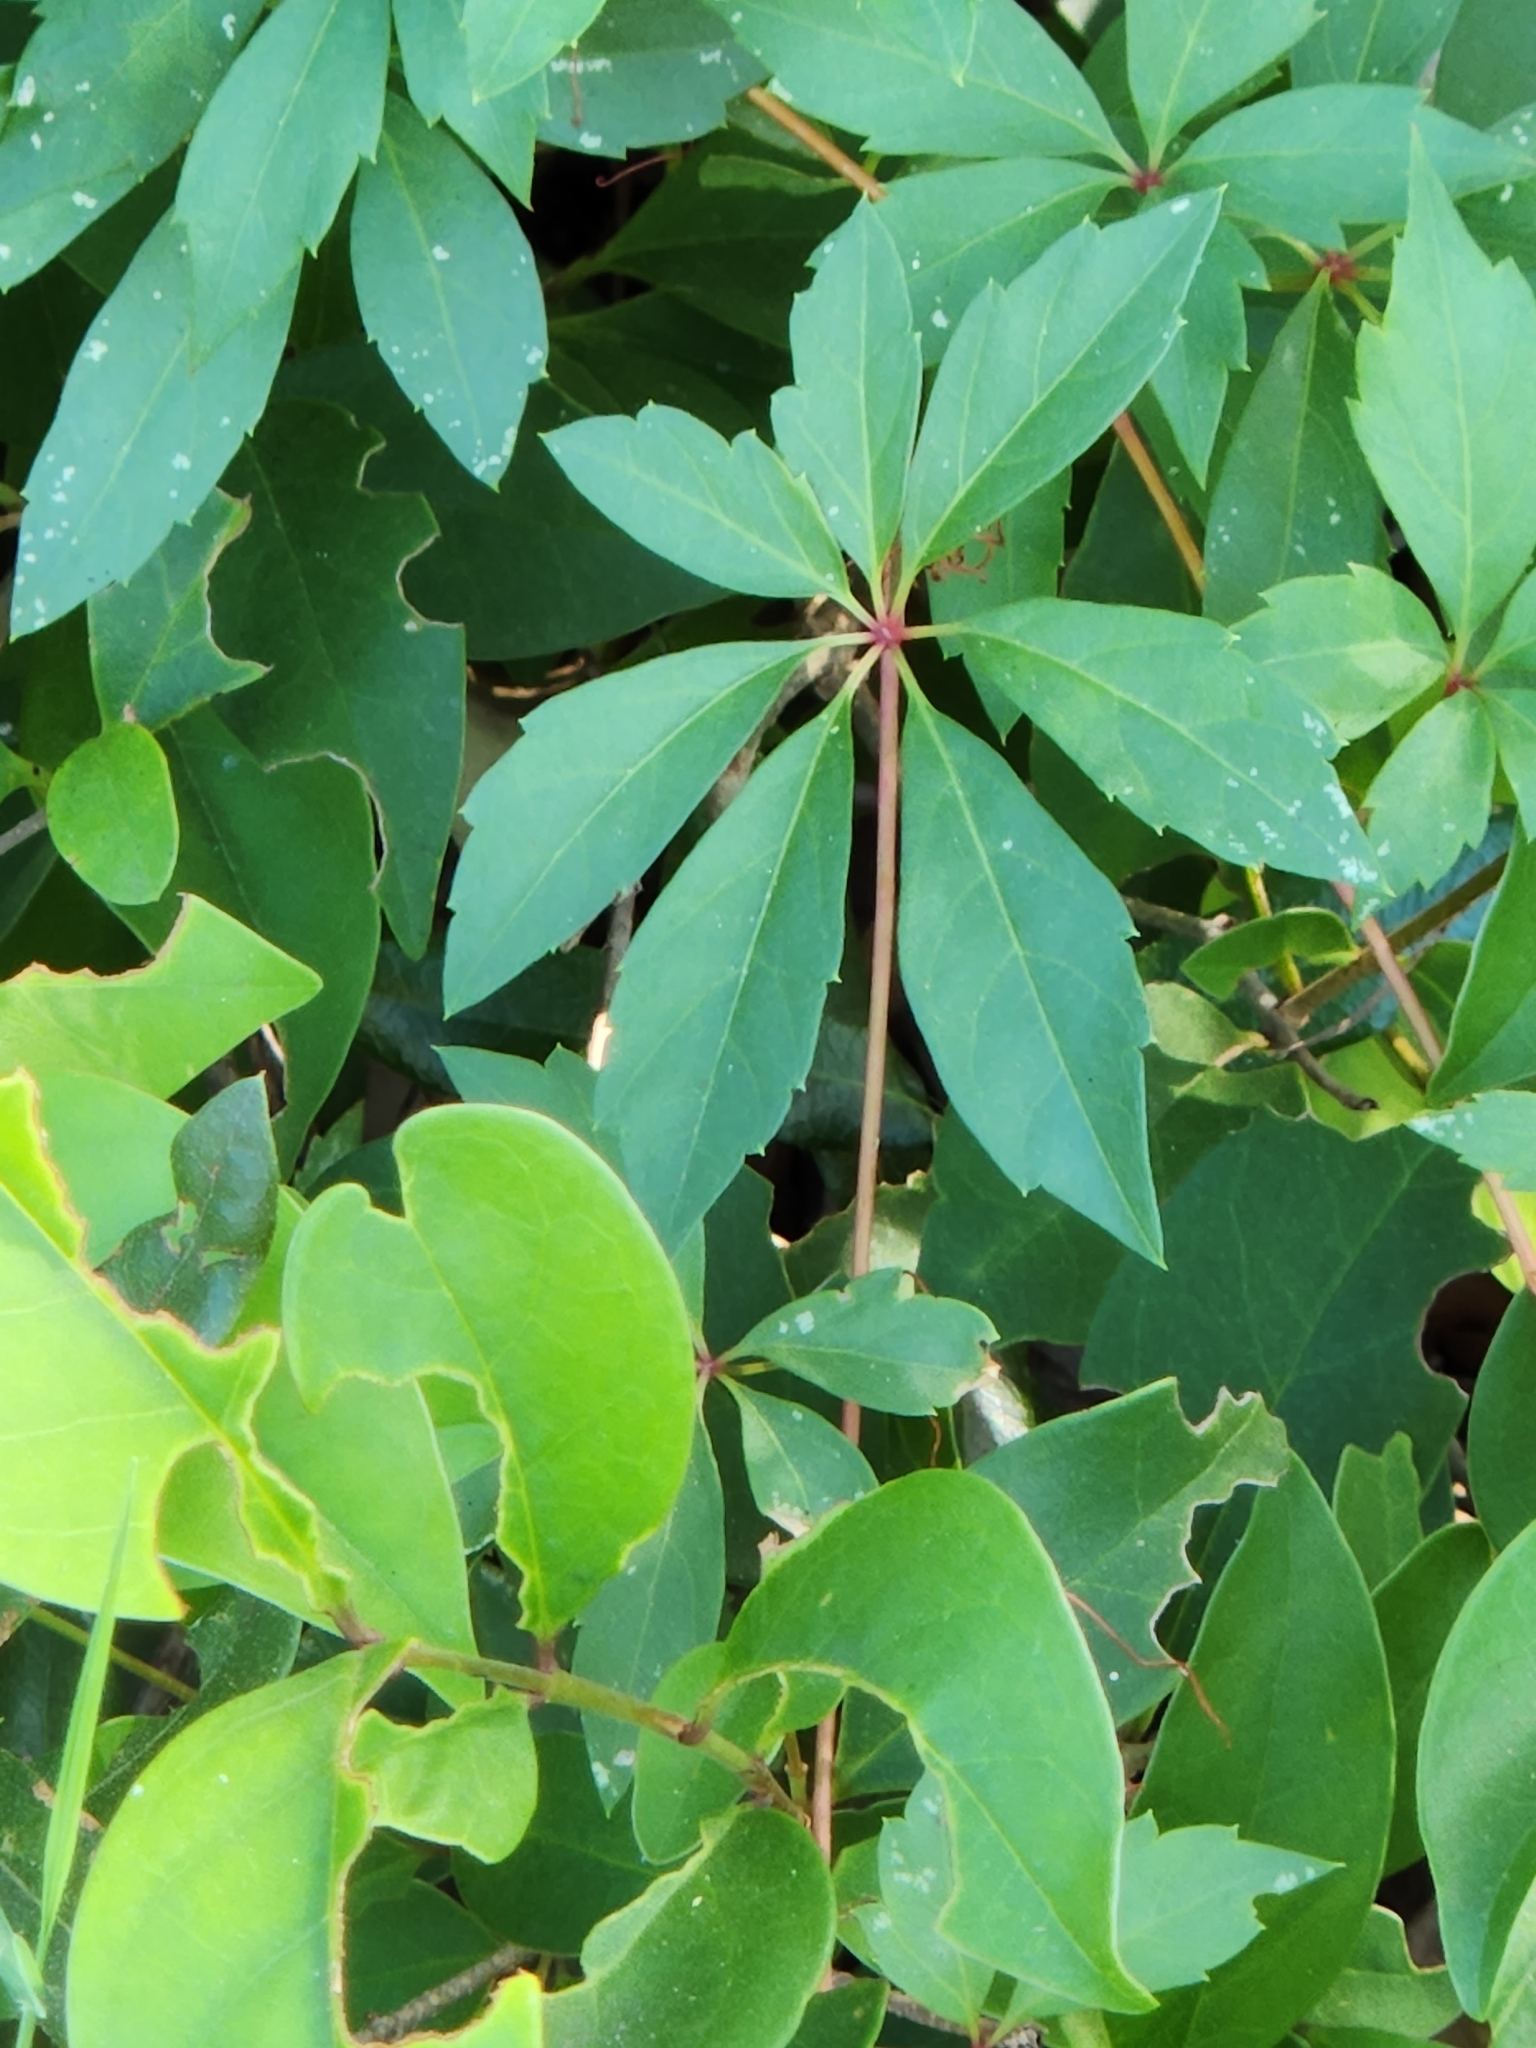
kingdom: Plantae
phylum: Tracheophyta
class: Magnoliopsida
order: Vitales
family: Vitaceae
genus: Parthenocissus
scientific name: Parthenocissus heptaphylla
